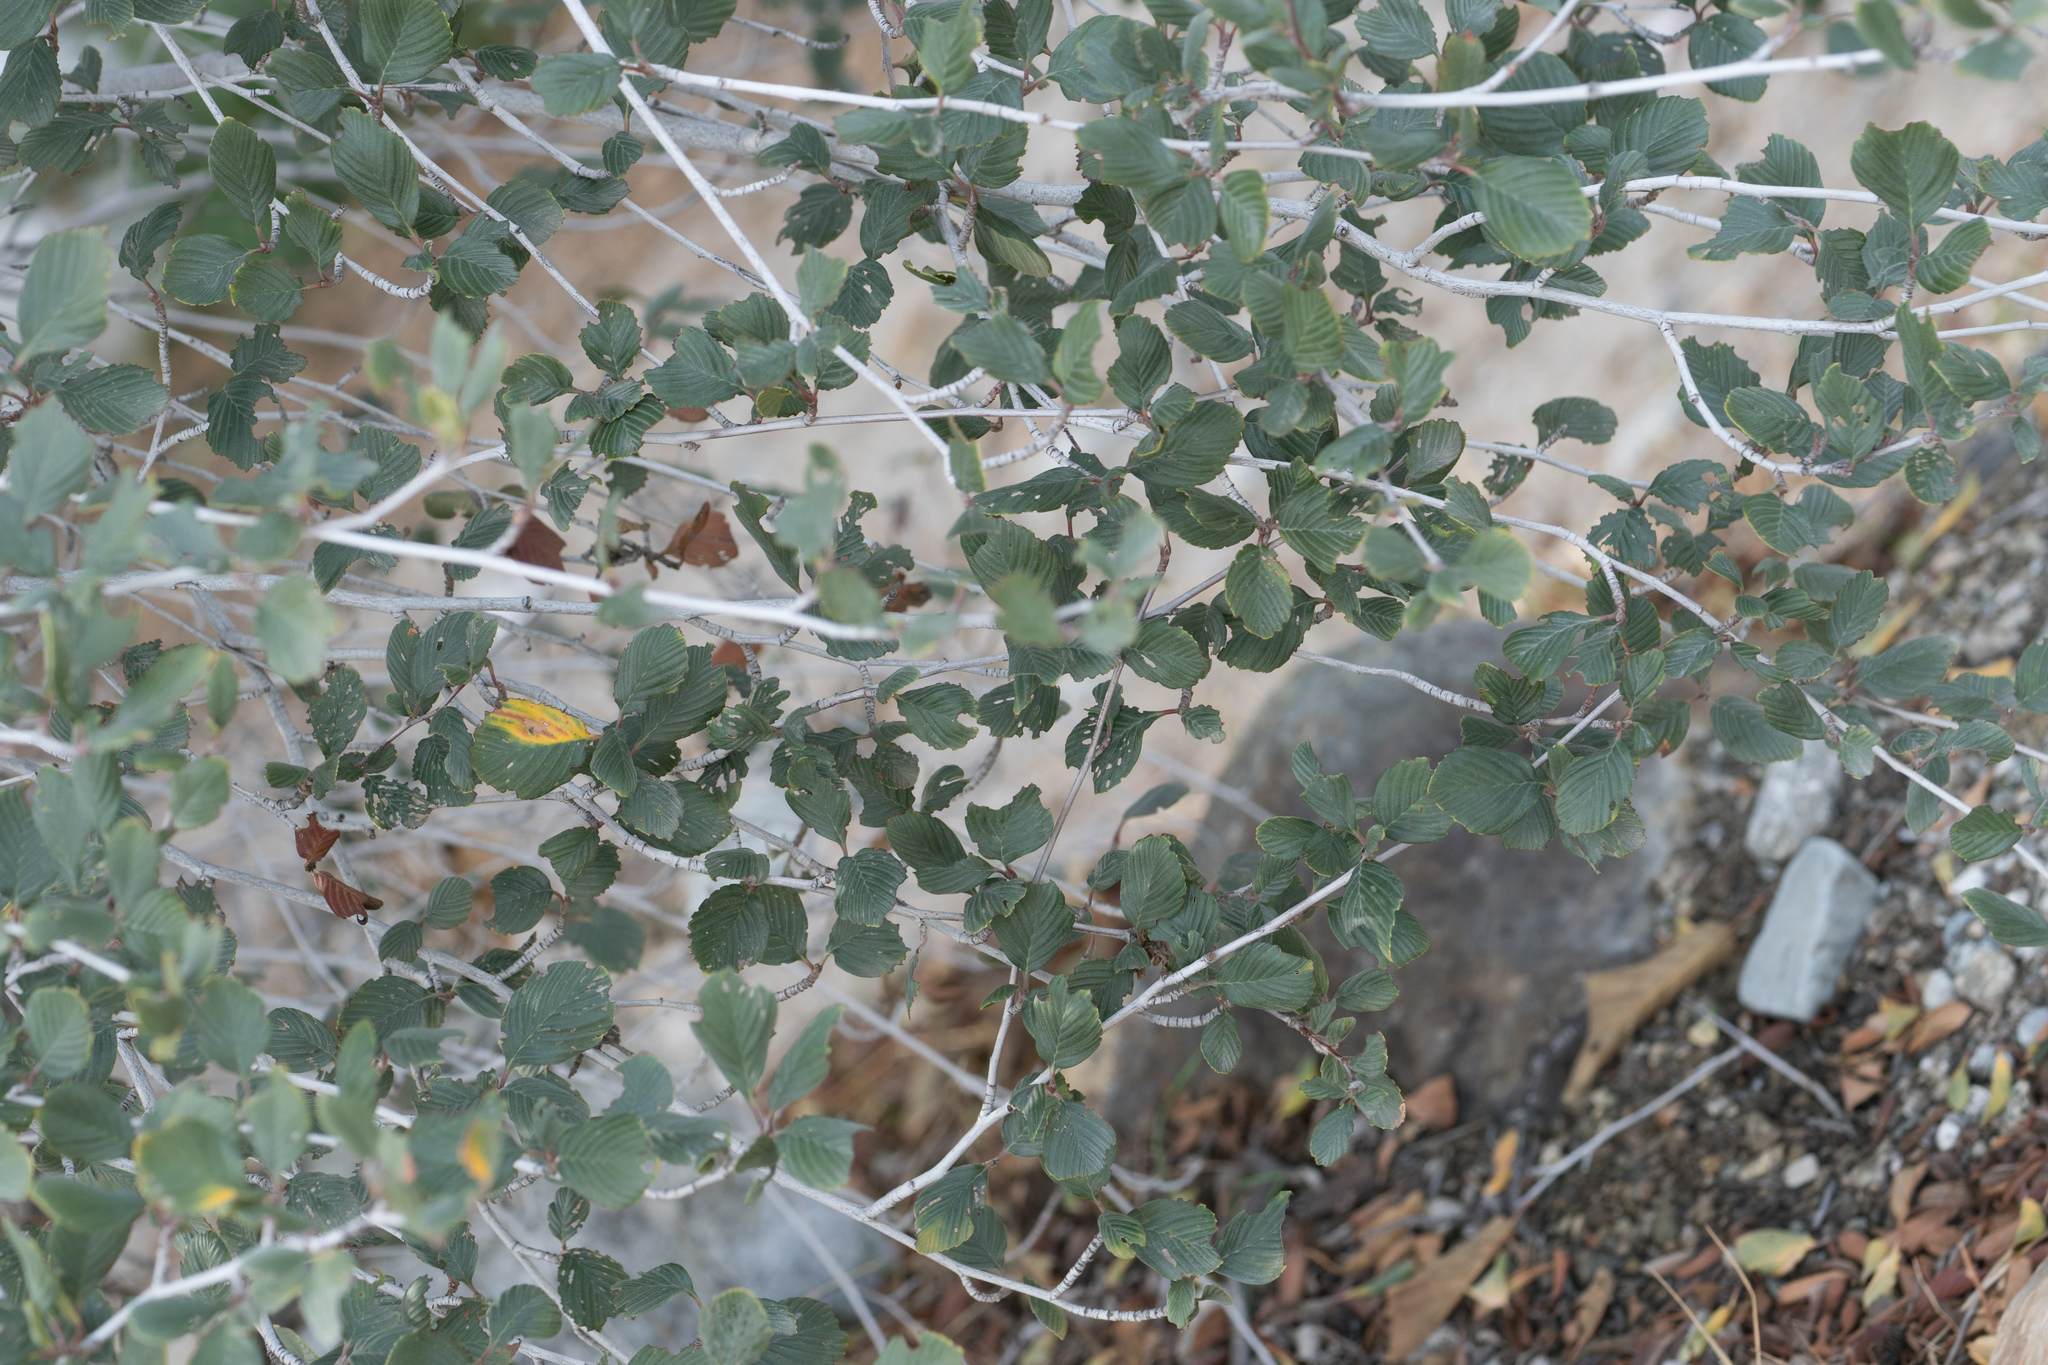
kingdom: Plantae
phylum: Tracheophyta
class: Magnoliopsida
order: Rosales
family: Rosaceae
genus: Cercocarpus
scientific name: Cercocarpus betuloides
